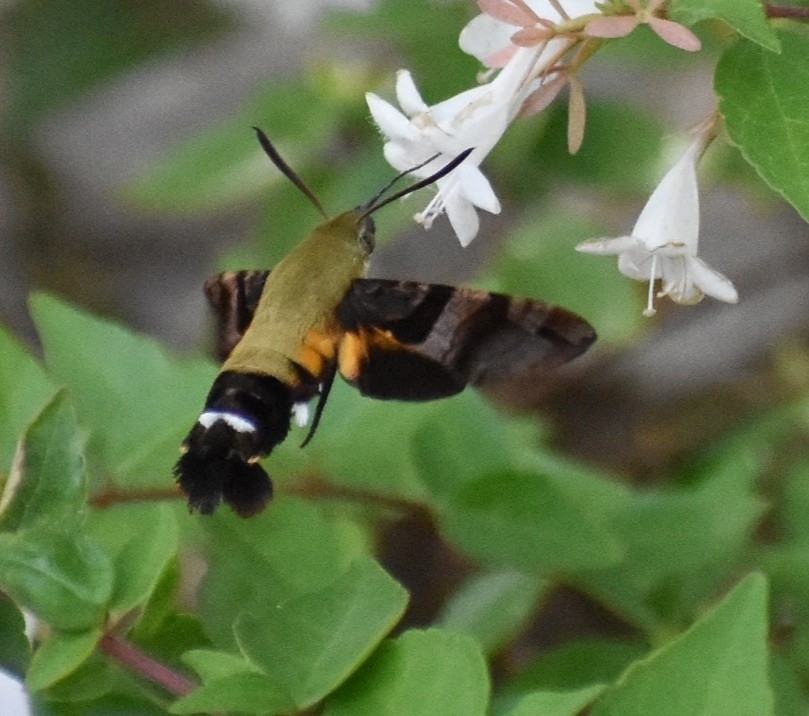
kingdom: Animalia
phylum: Arthropoda
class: Insecta
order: Lepidoptera
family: Sphingidae
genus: Macroglossum
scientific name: Macroglossum bombylans
